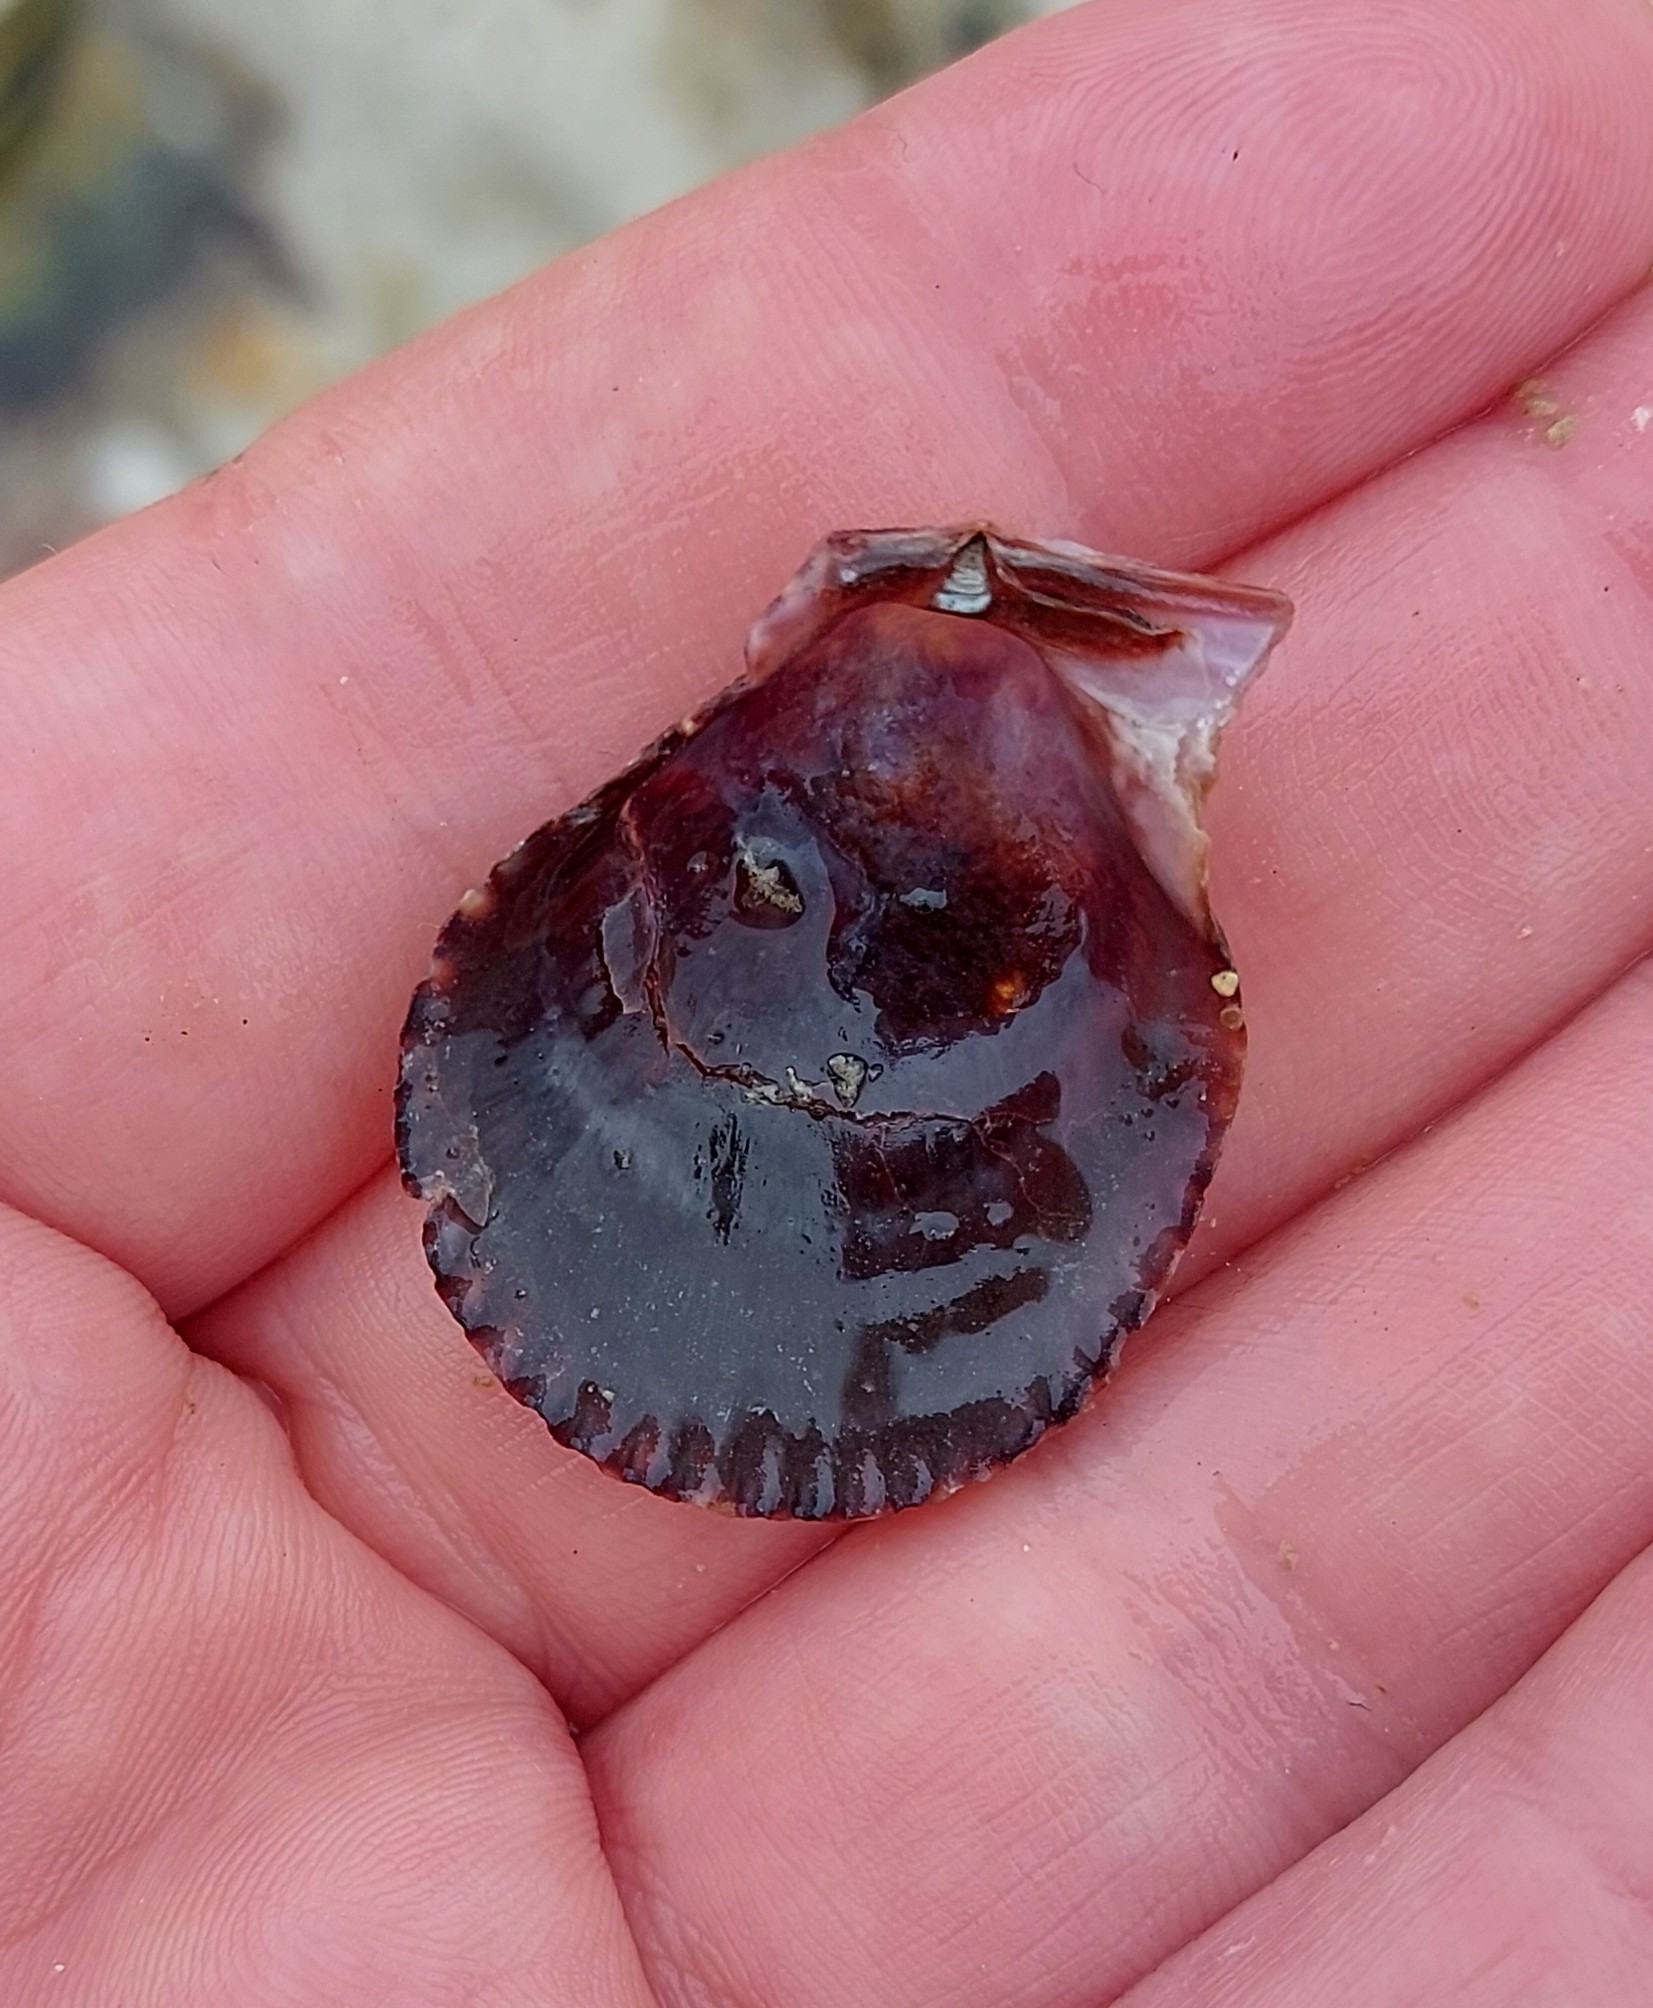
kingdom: Animalia
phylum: Mollusca
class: Bivalvia
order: Pectinida
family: Pectinidae
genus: Mimachlamys
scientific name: Mimachlamys varia
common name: Variegated scallop
